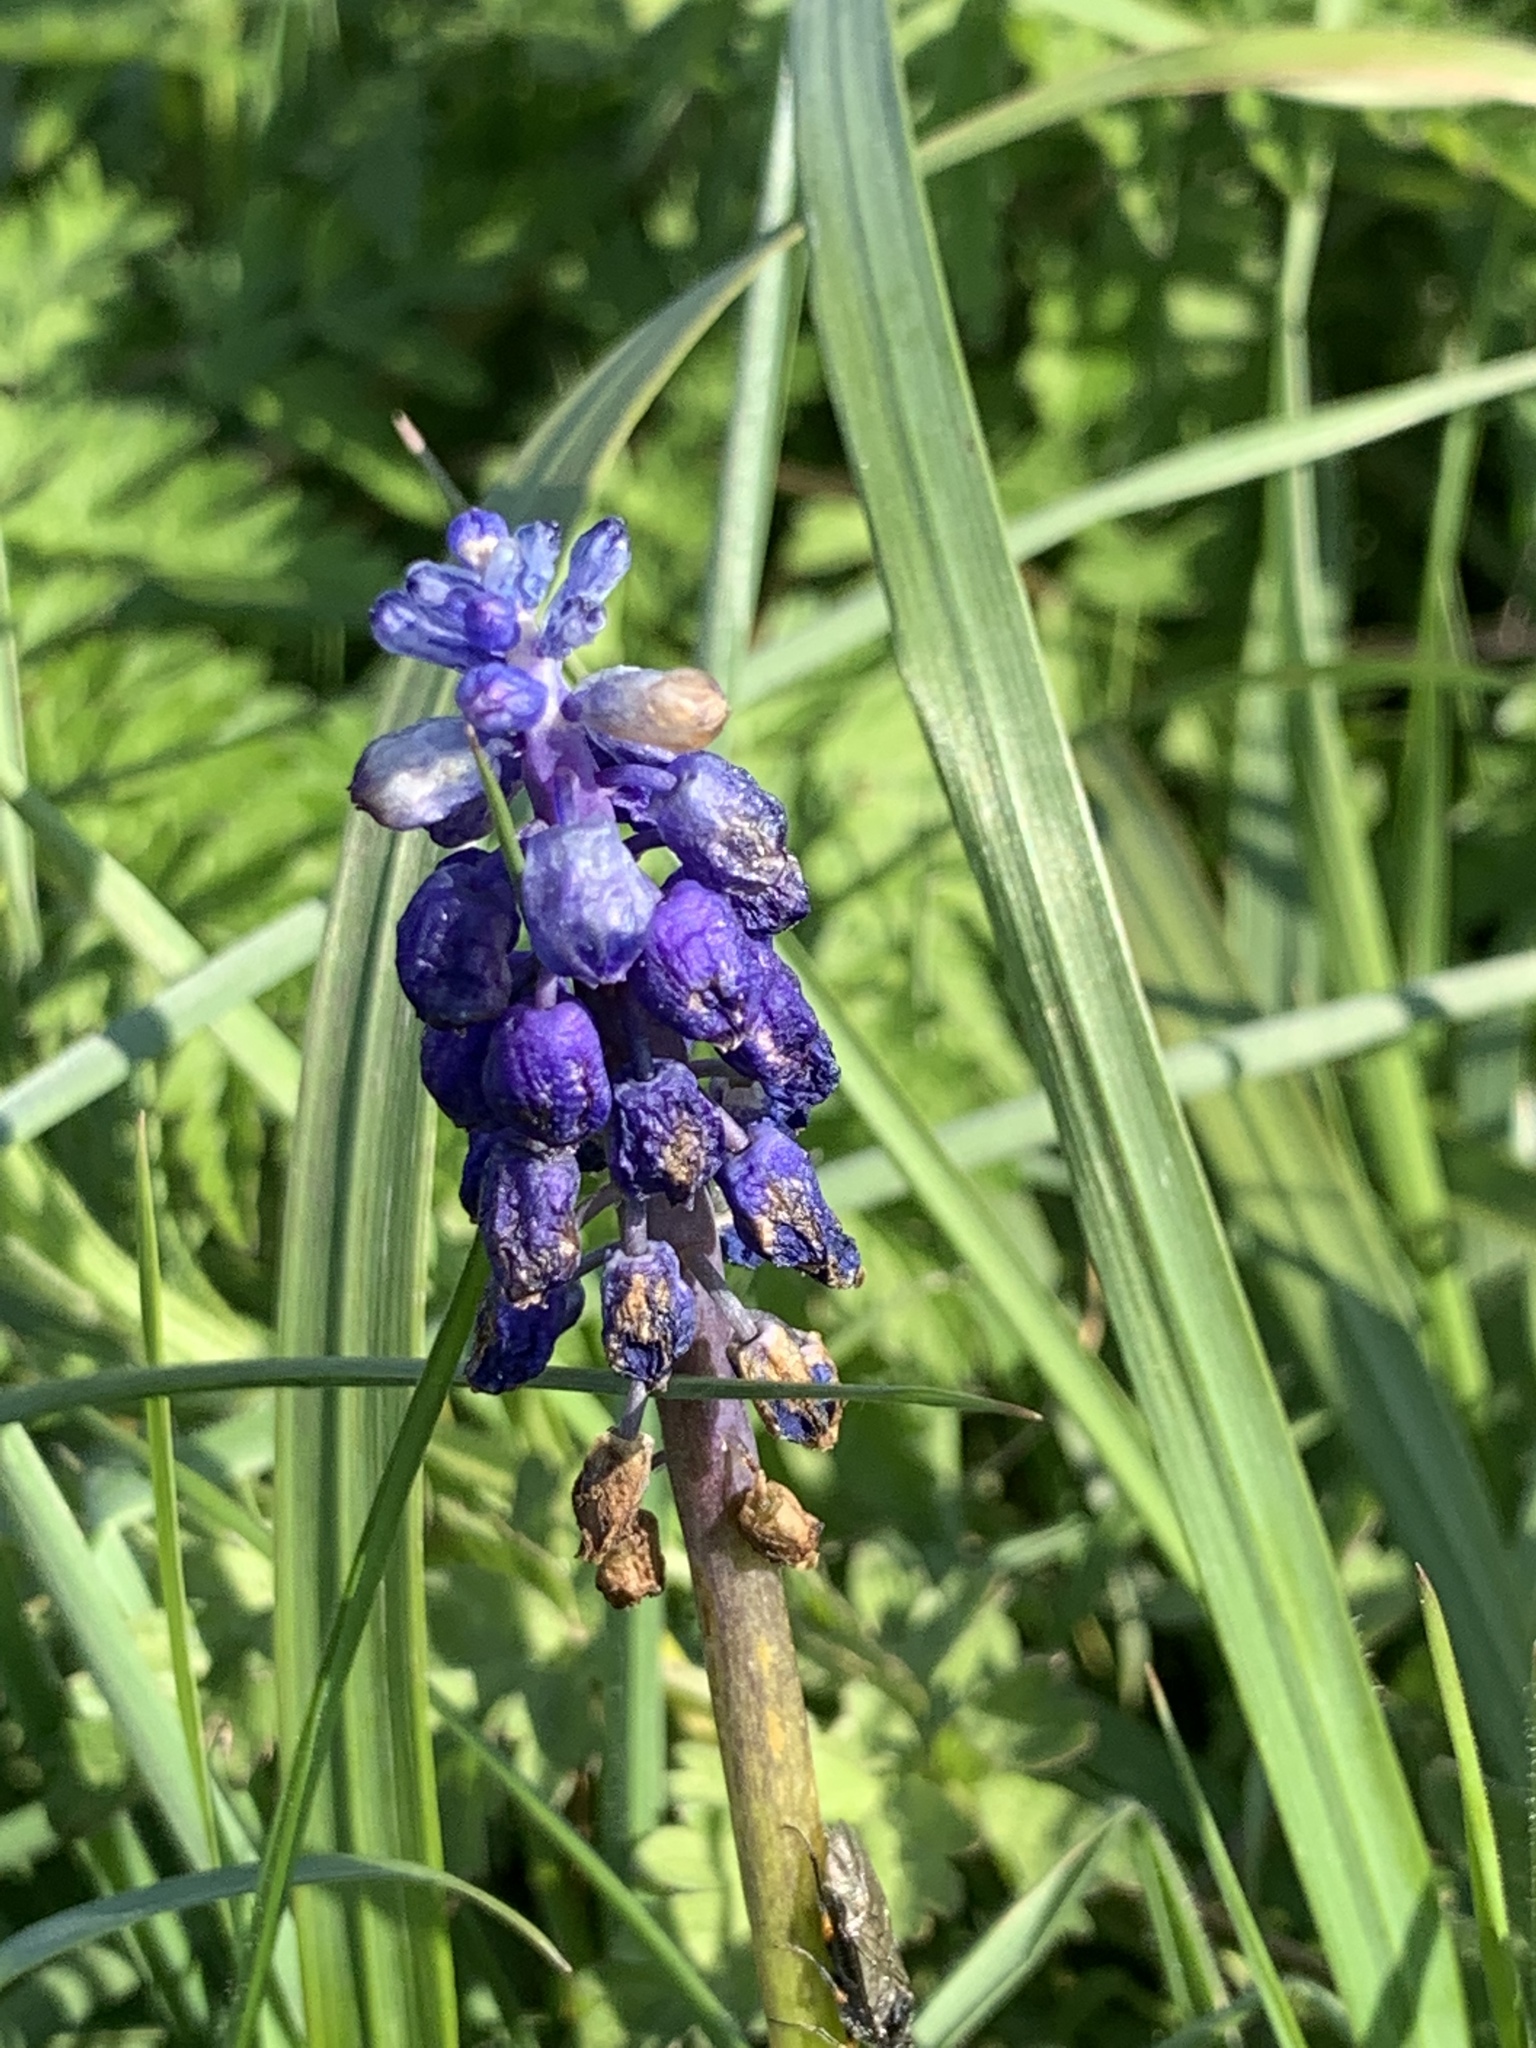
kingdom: Plantae
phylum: Tracheophyta
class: Liliopsida
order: Asparagales
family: Asparagaceae
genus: Muscari
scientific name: Muscari armeniacum
